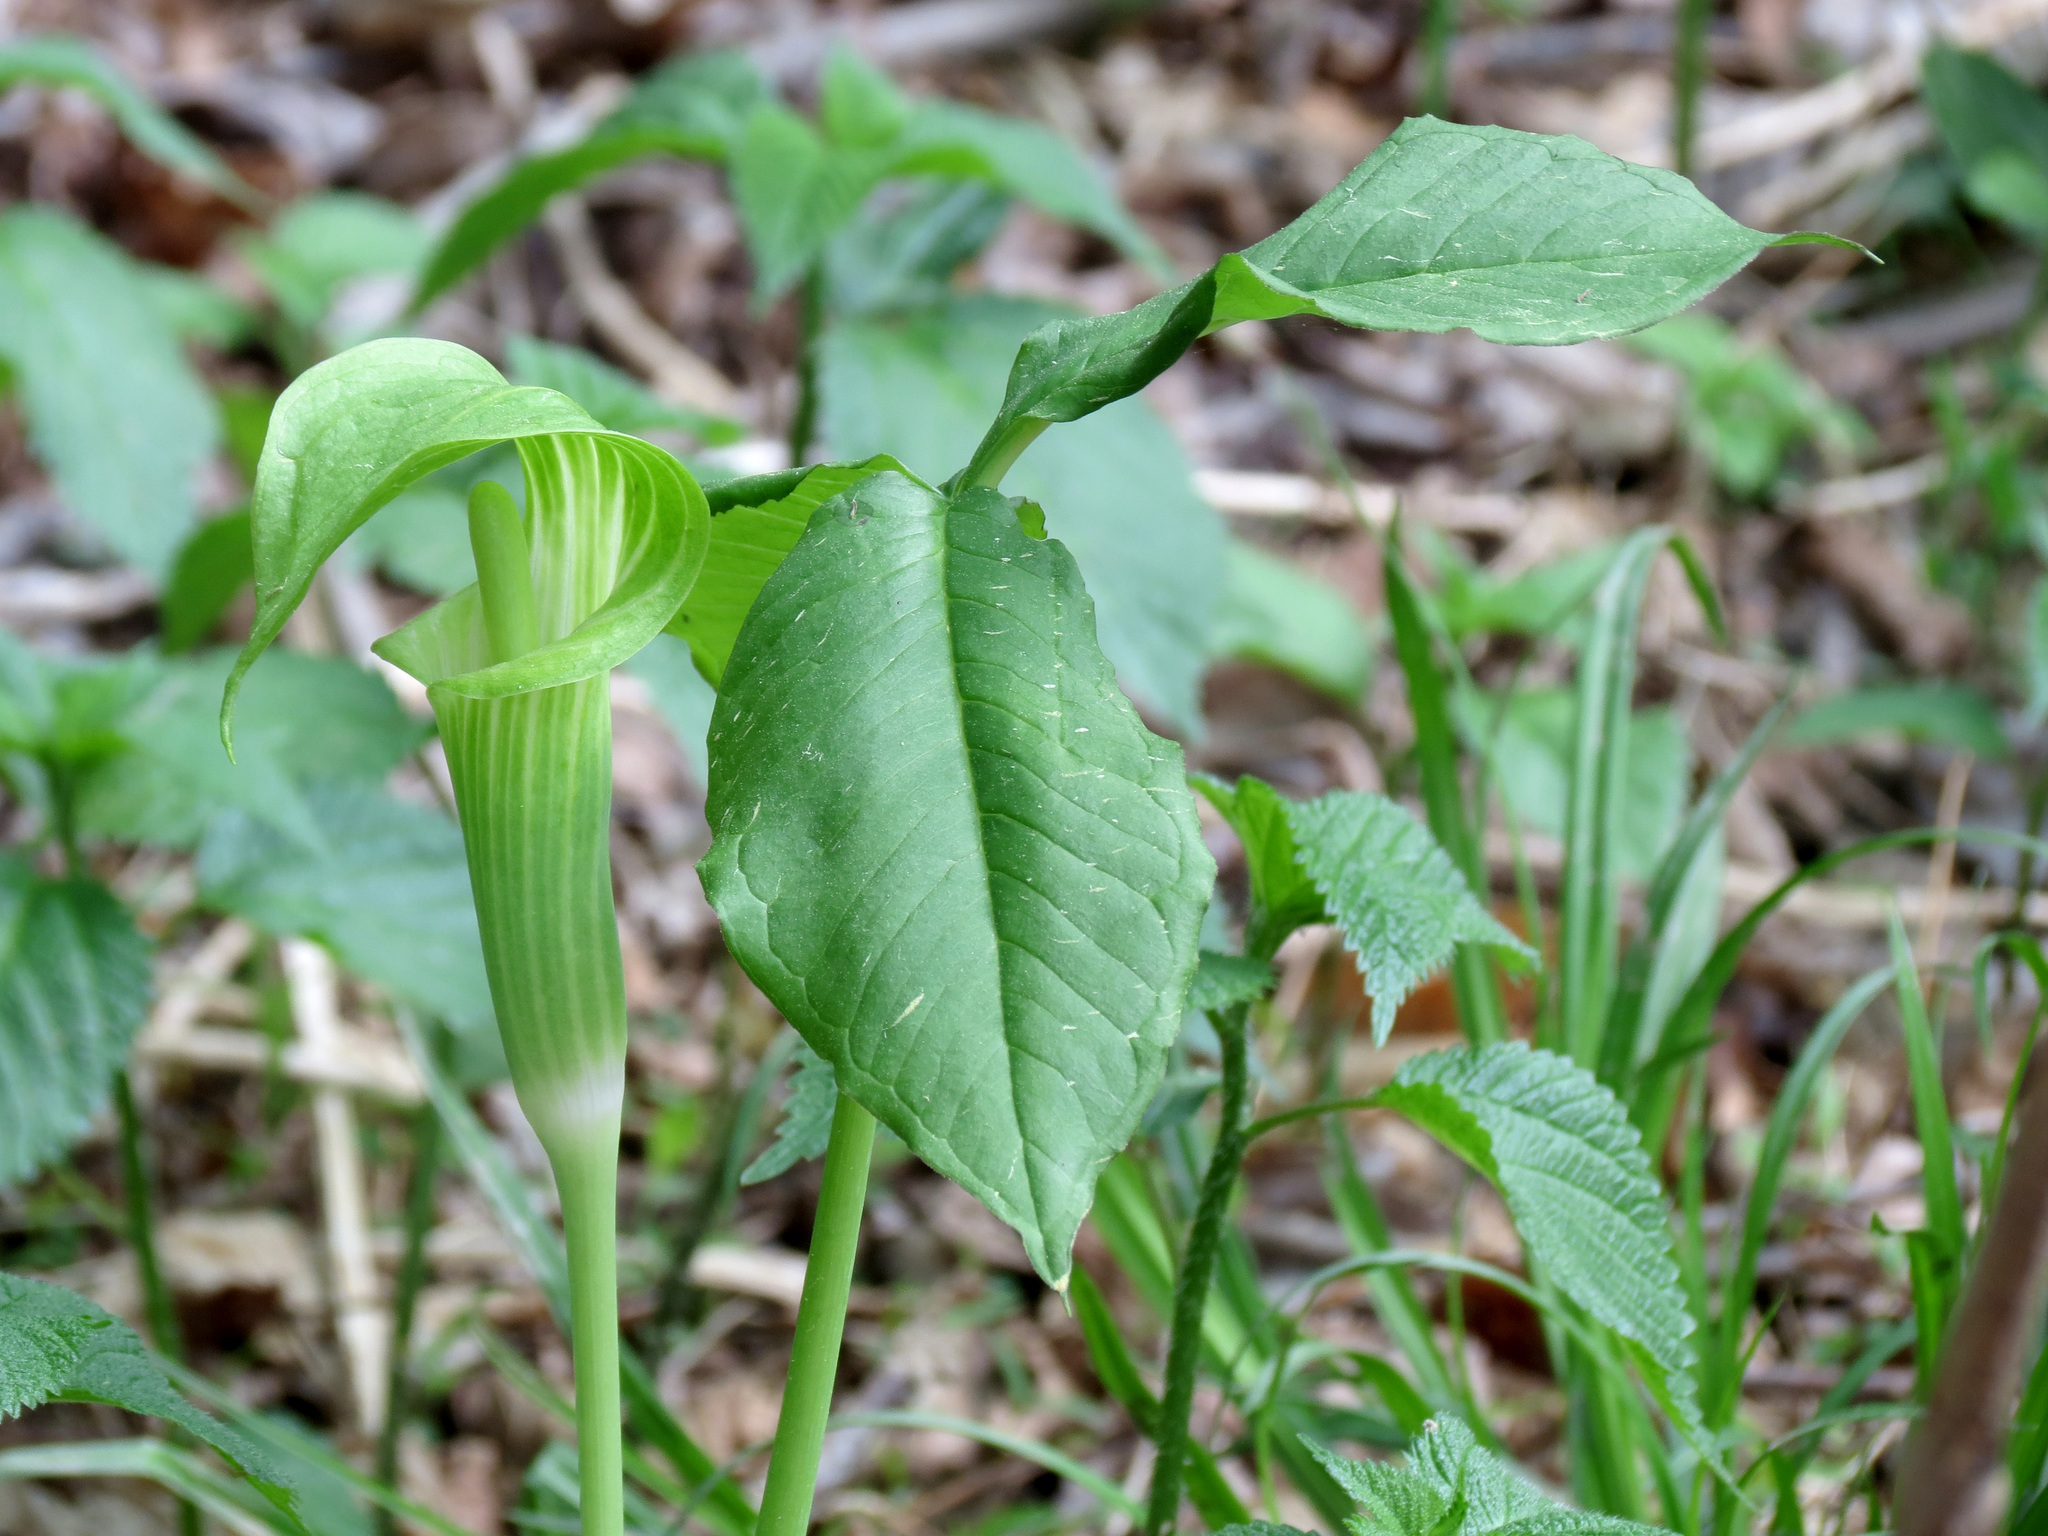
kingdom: Plantae
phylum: Tracheophyta
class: Liliopsida
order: Alismatales
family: Araceae
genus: Arisaema
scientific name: Arisaema triphyllum
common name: Jack-in-the-pulpit
